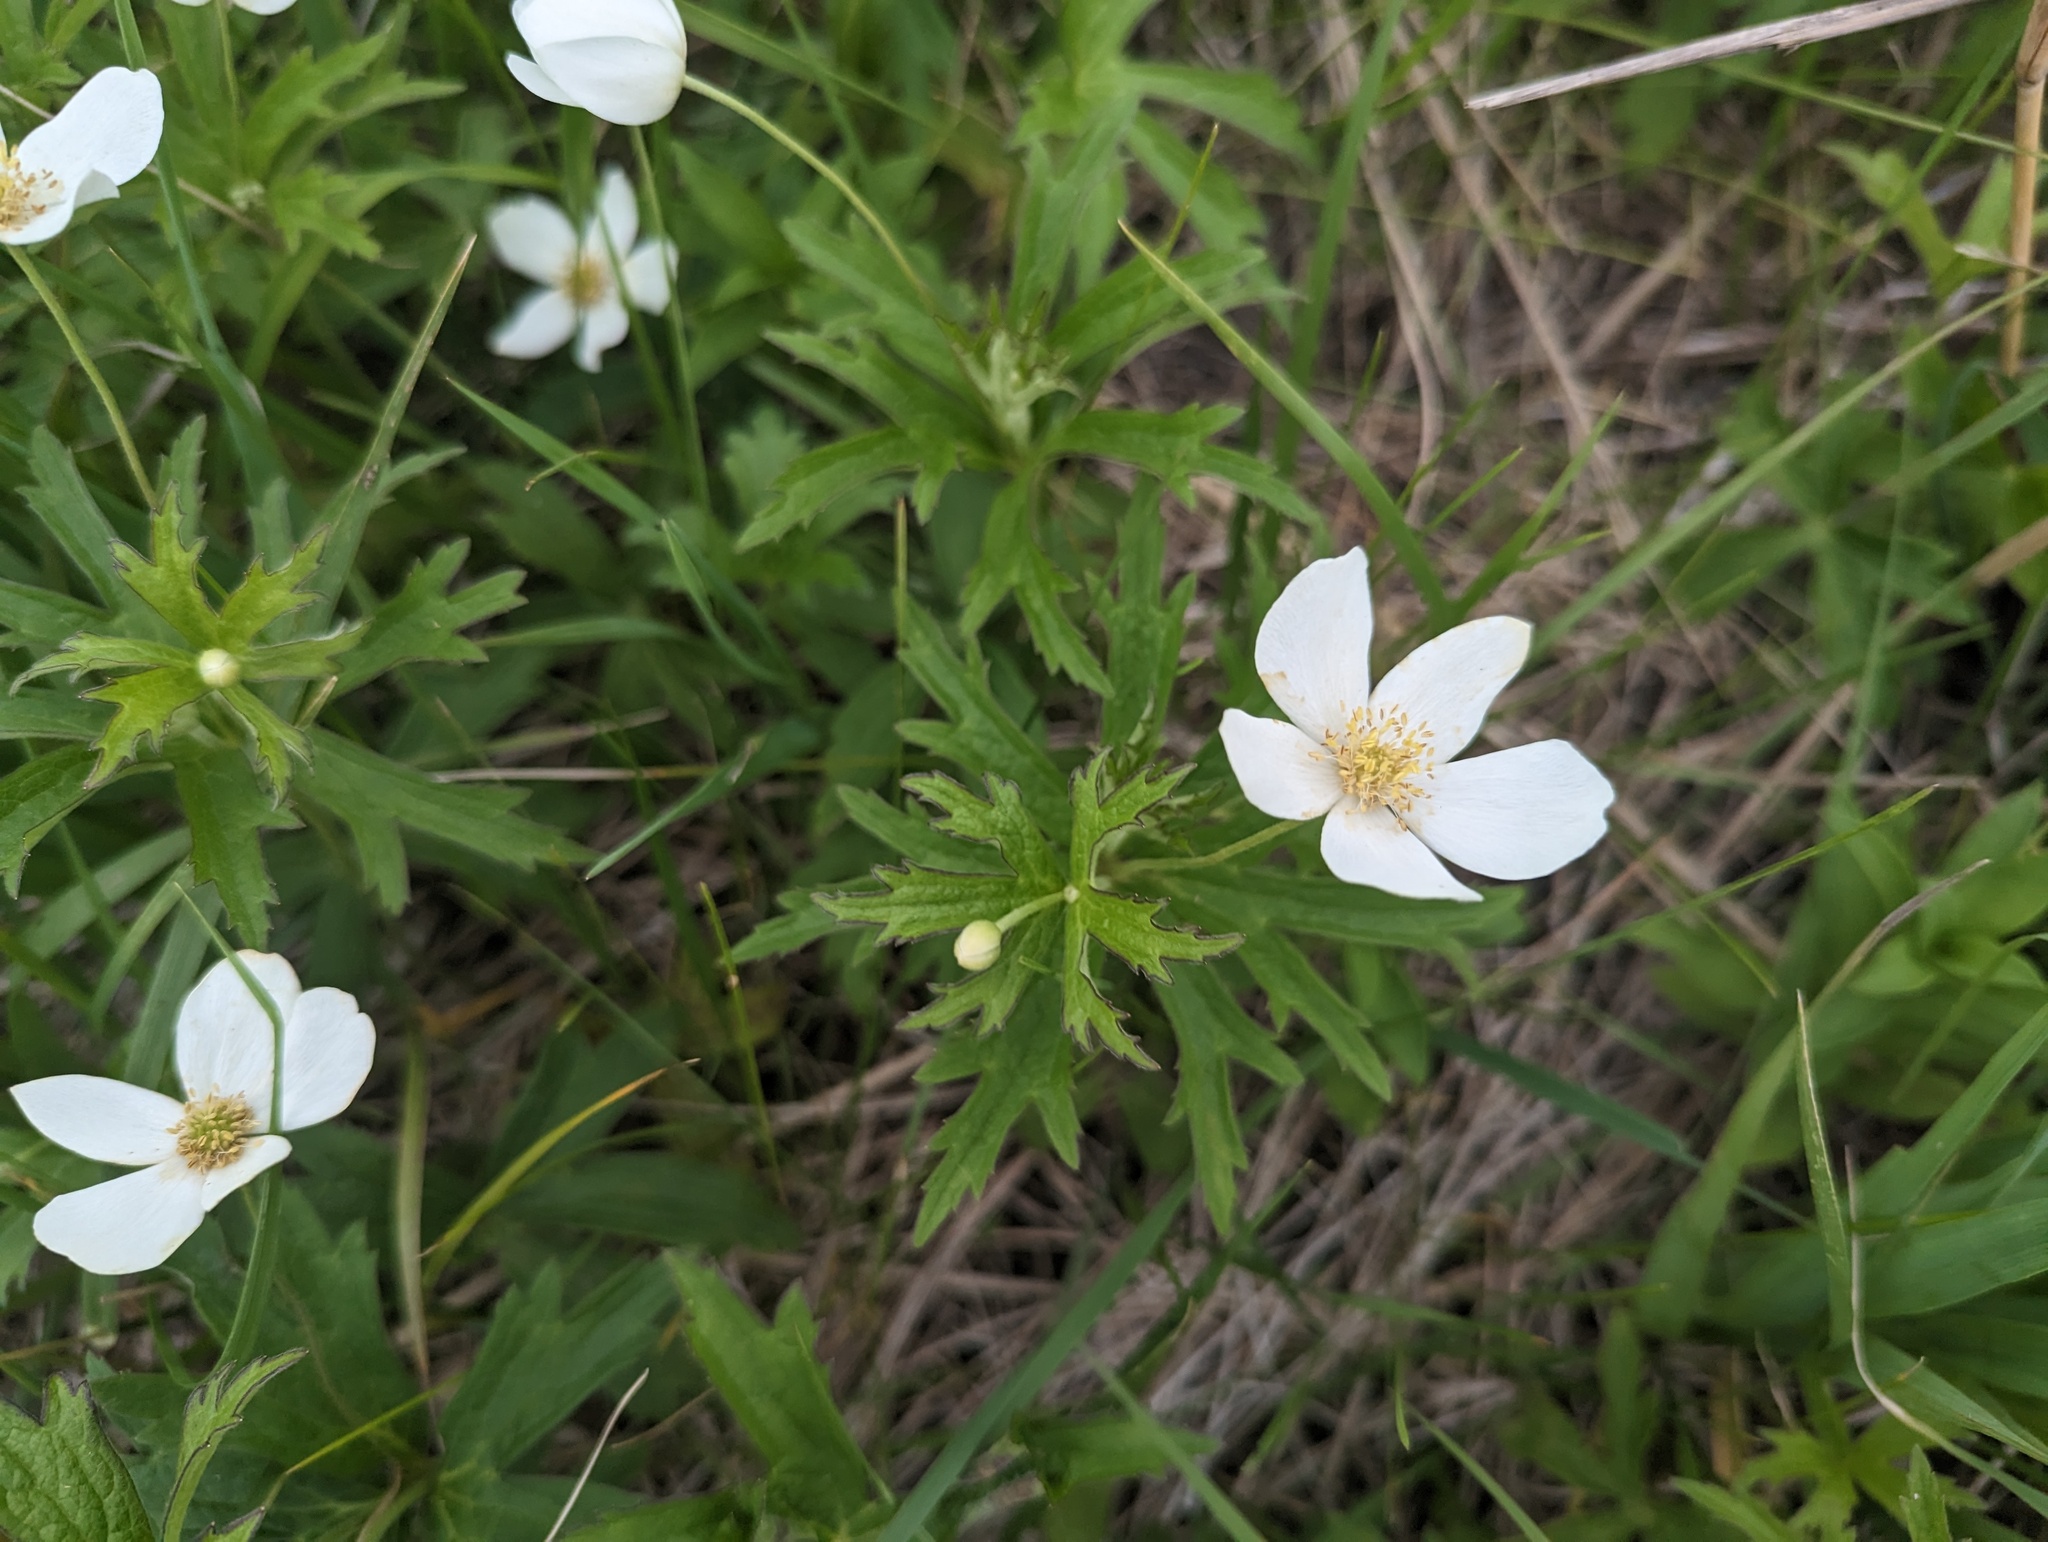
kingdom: Plantae
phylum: Tracheophyta
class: Magnoliopsida
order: Ranunculales
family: Ranunculaceae
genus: Anemonastrum
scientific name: Anemonastrum canadense
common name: Canada anemone
